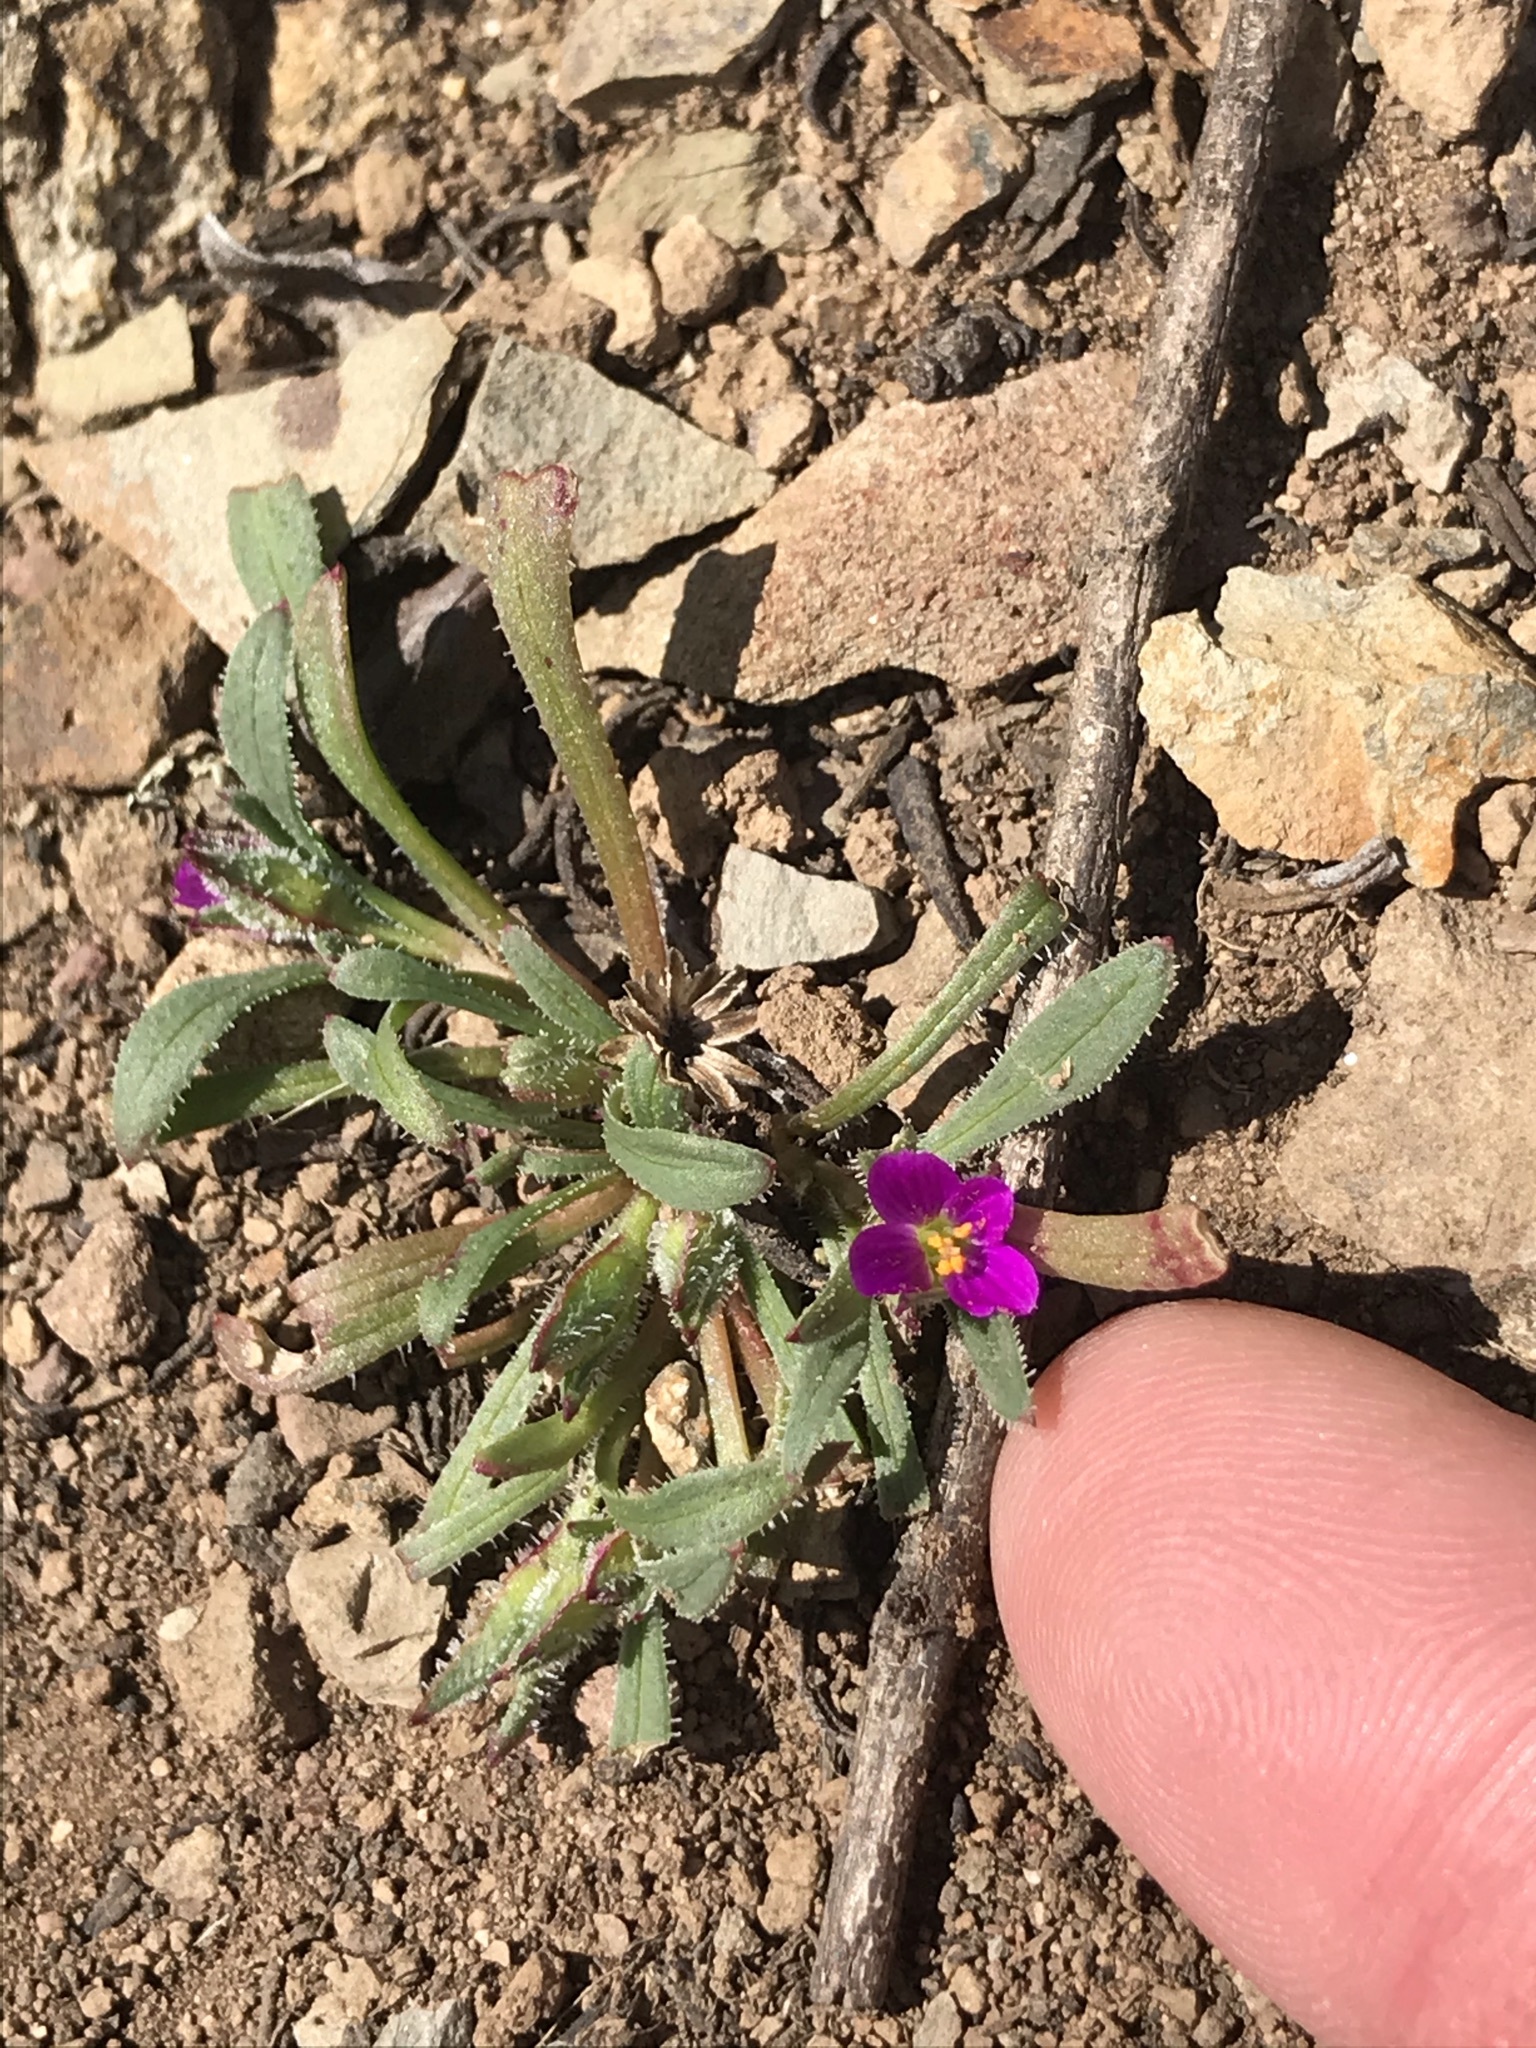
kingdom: Plantae
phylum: Tracheophyta
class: Magnoliopsida
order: Caryophyllales
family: Montiaceae
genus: Calandrinia
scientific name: Calandrinia menziesii
